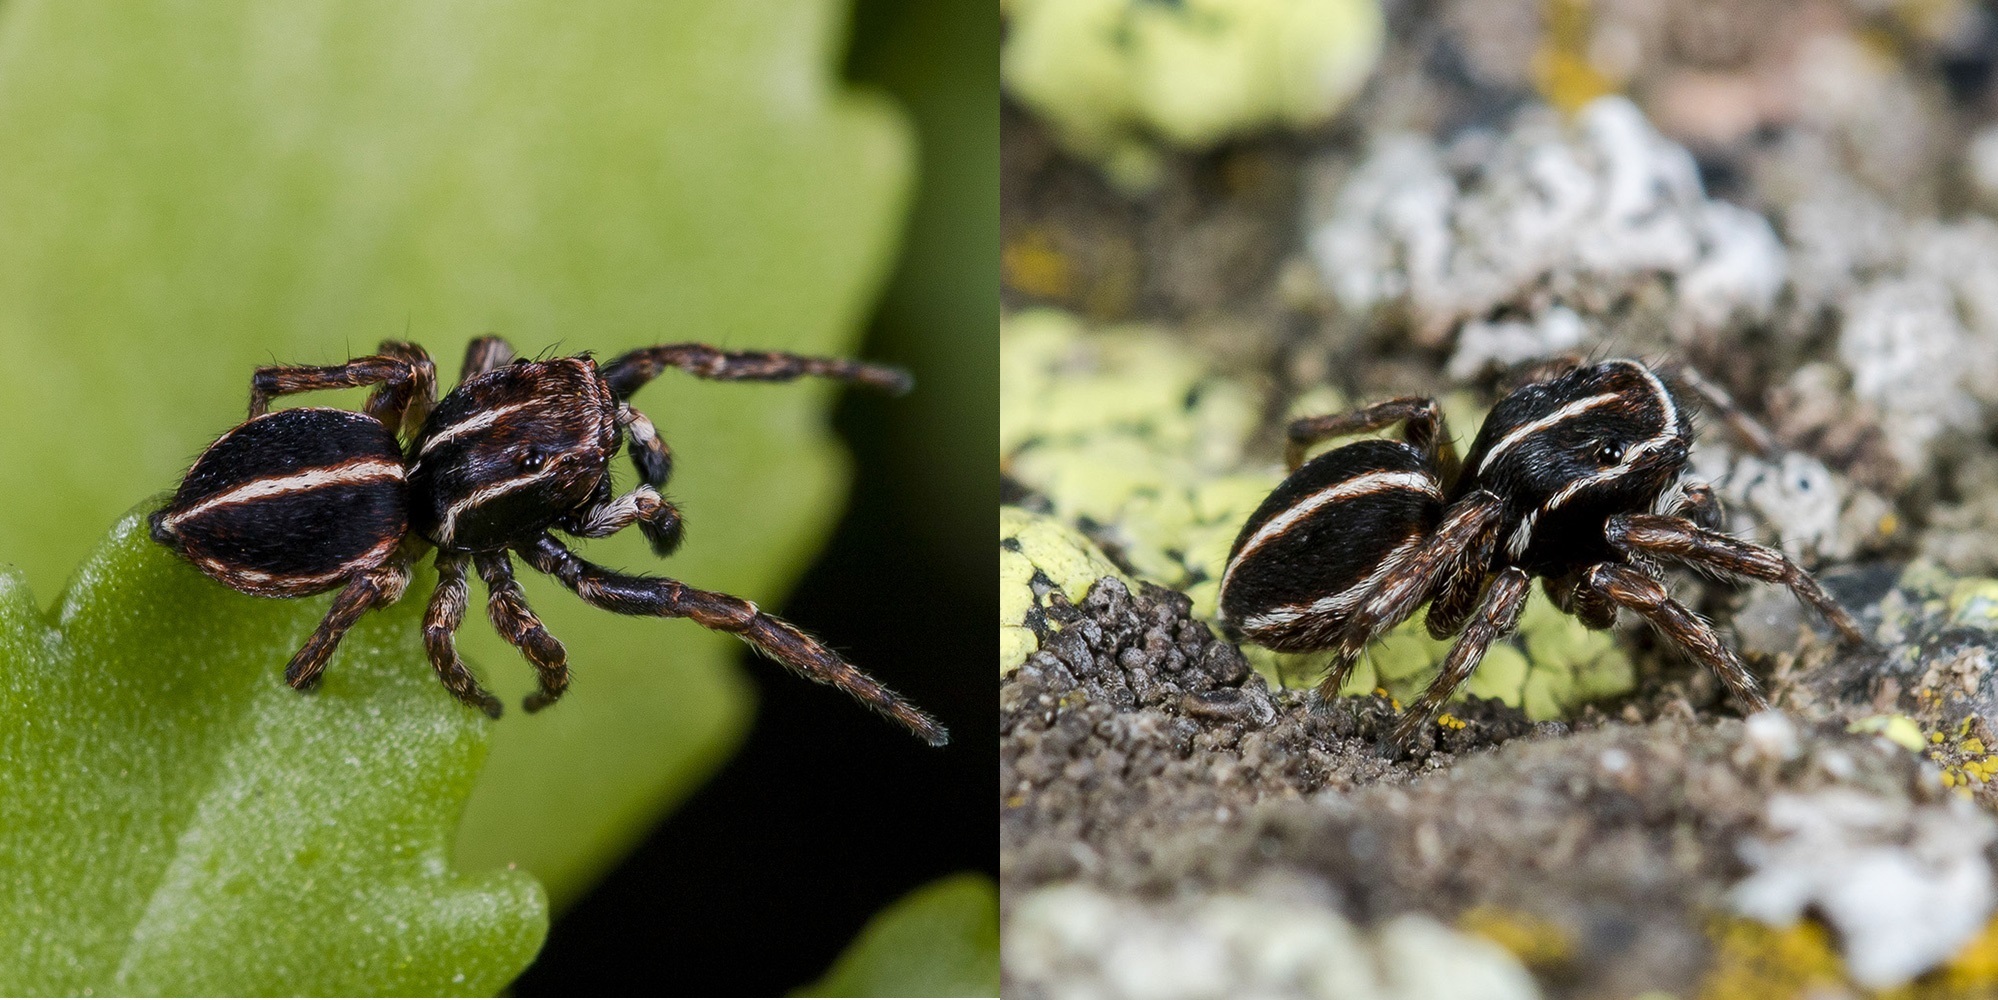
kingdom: Animalia
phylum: Arthropoda
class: Arachnida
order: Araneae
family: Salticidae
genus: Attulus
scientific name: Attulus monstrabilis
